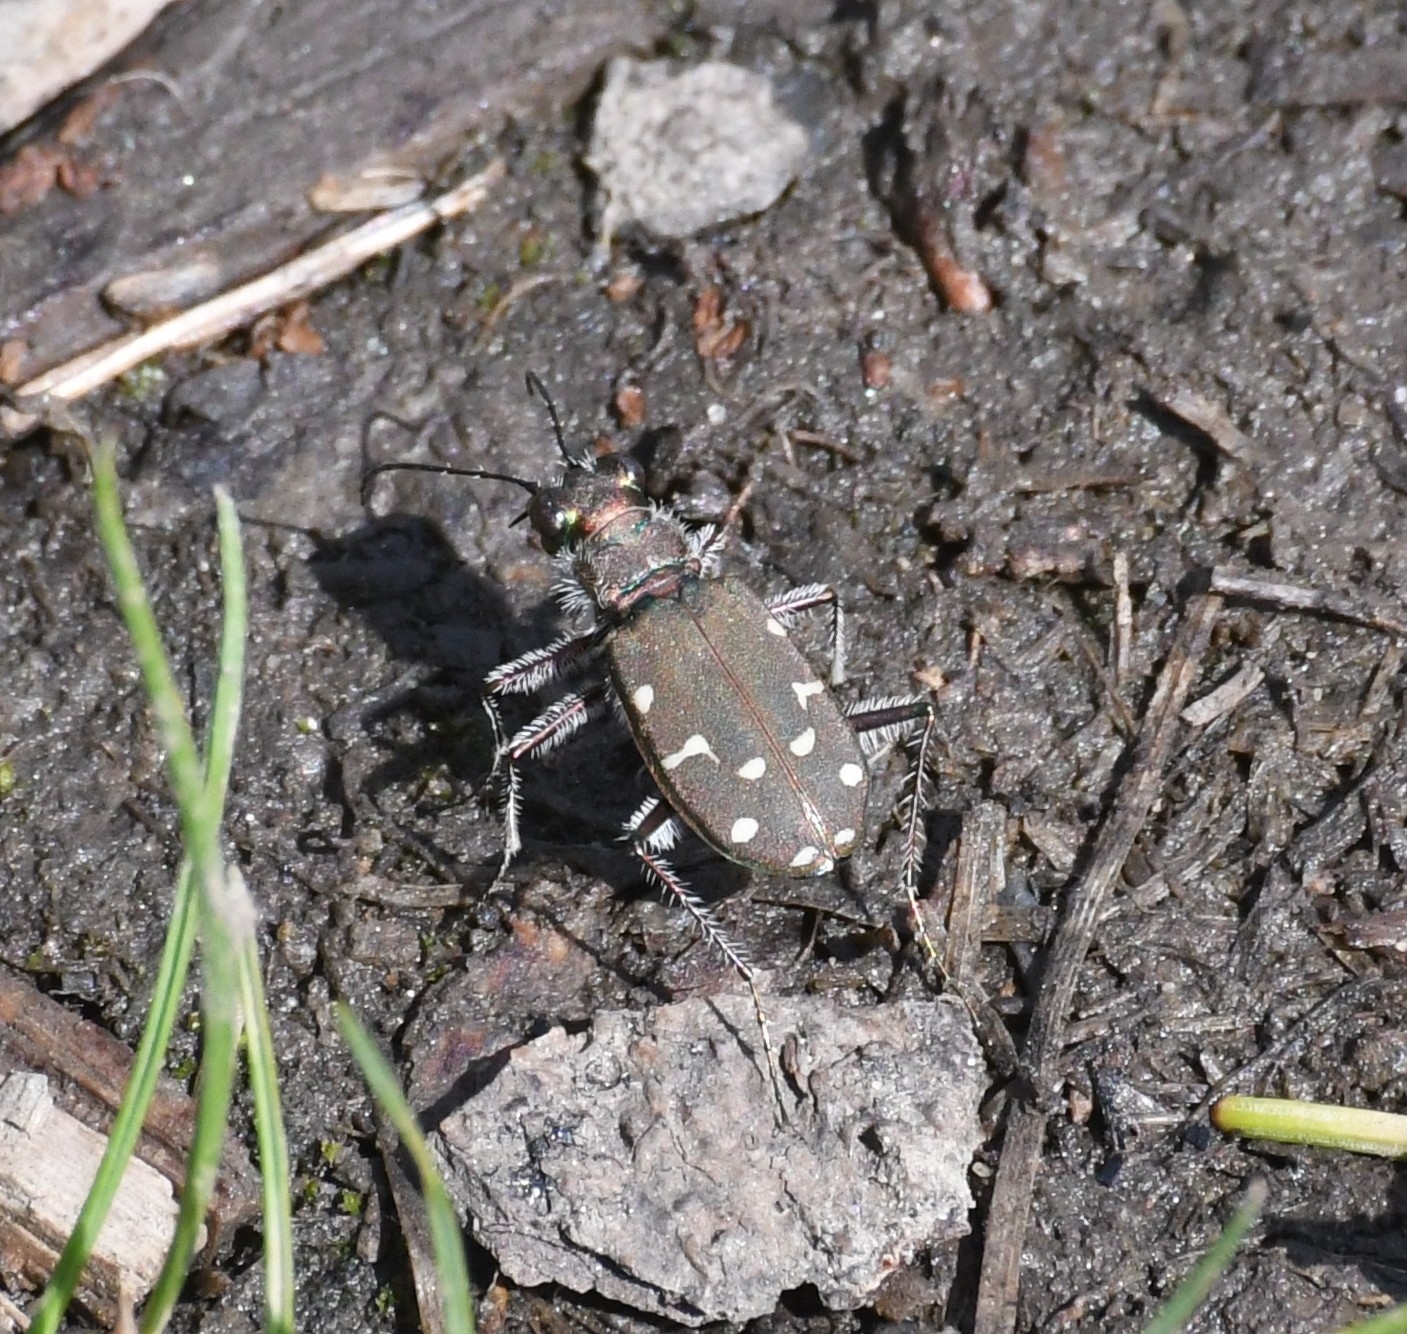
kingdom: Animalia
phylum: Arthropoda
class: Insecta
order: Coleoptera
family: Carabidae
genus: Cicindela
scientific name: Cicindela oregona
